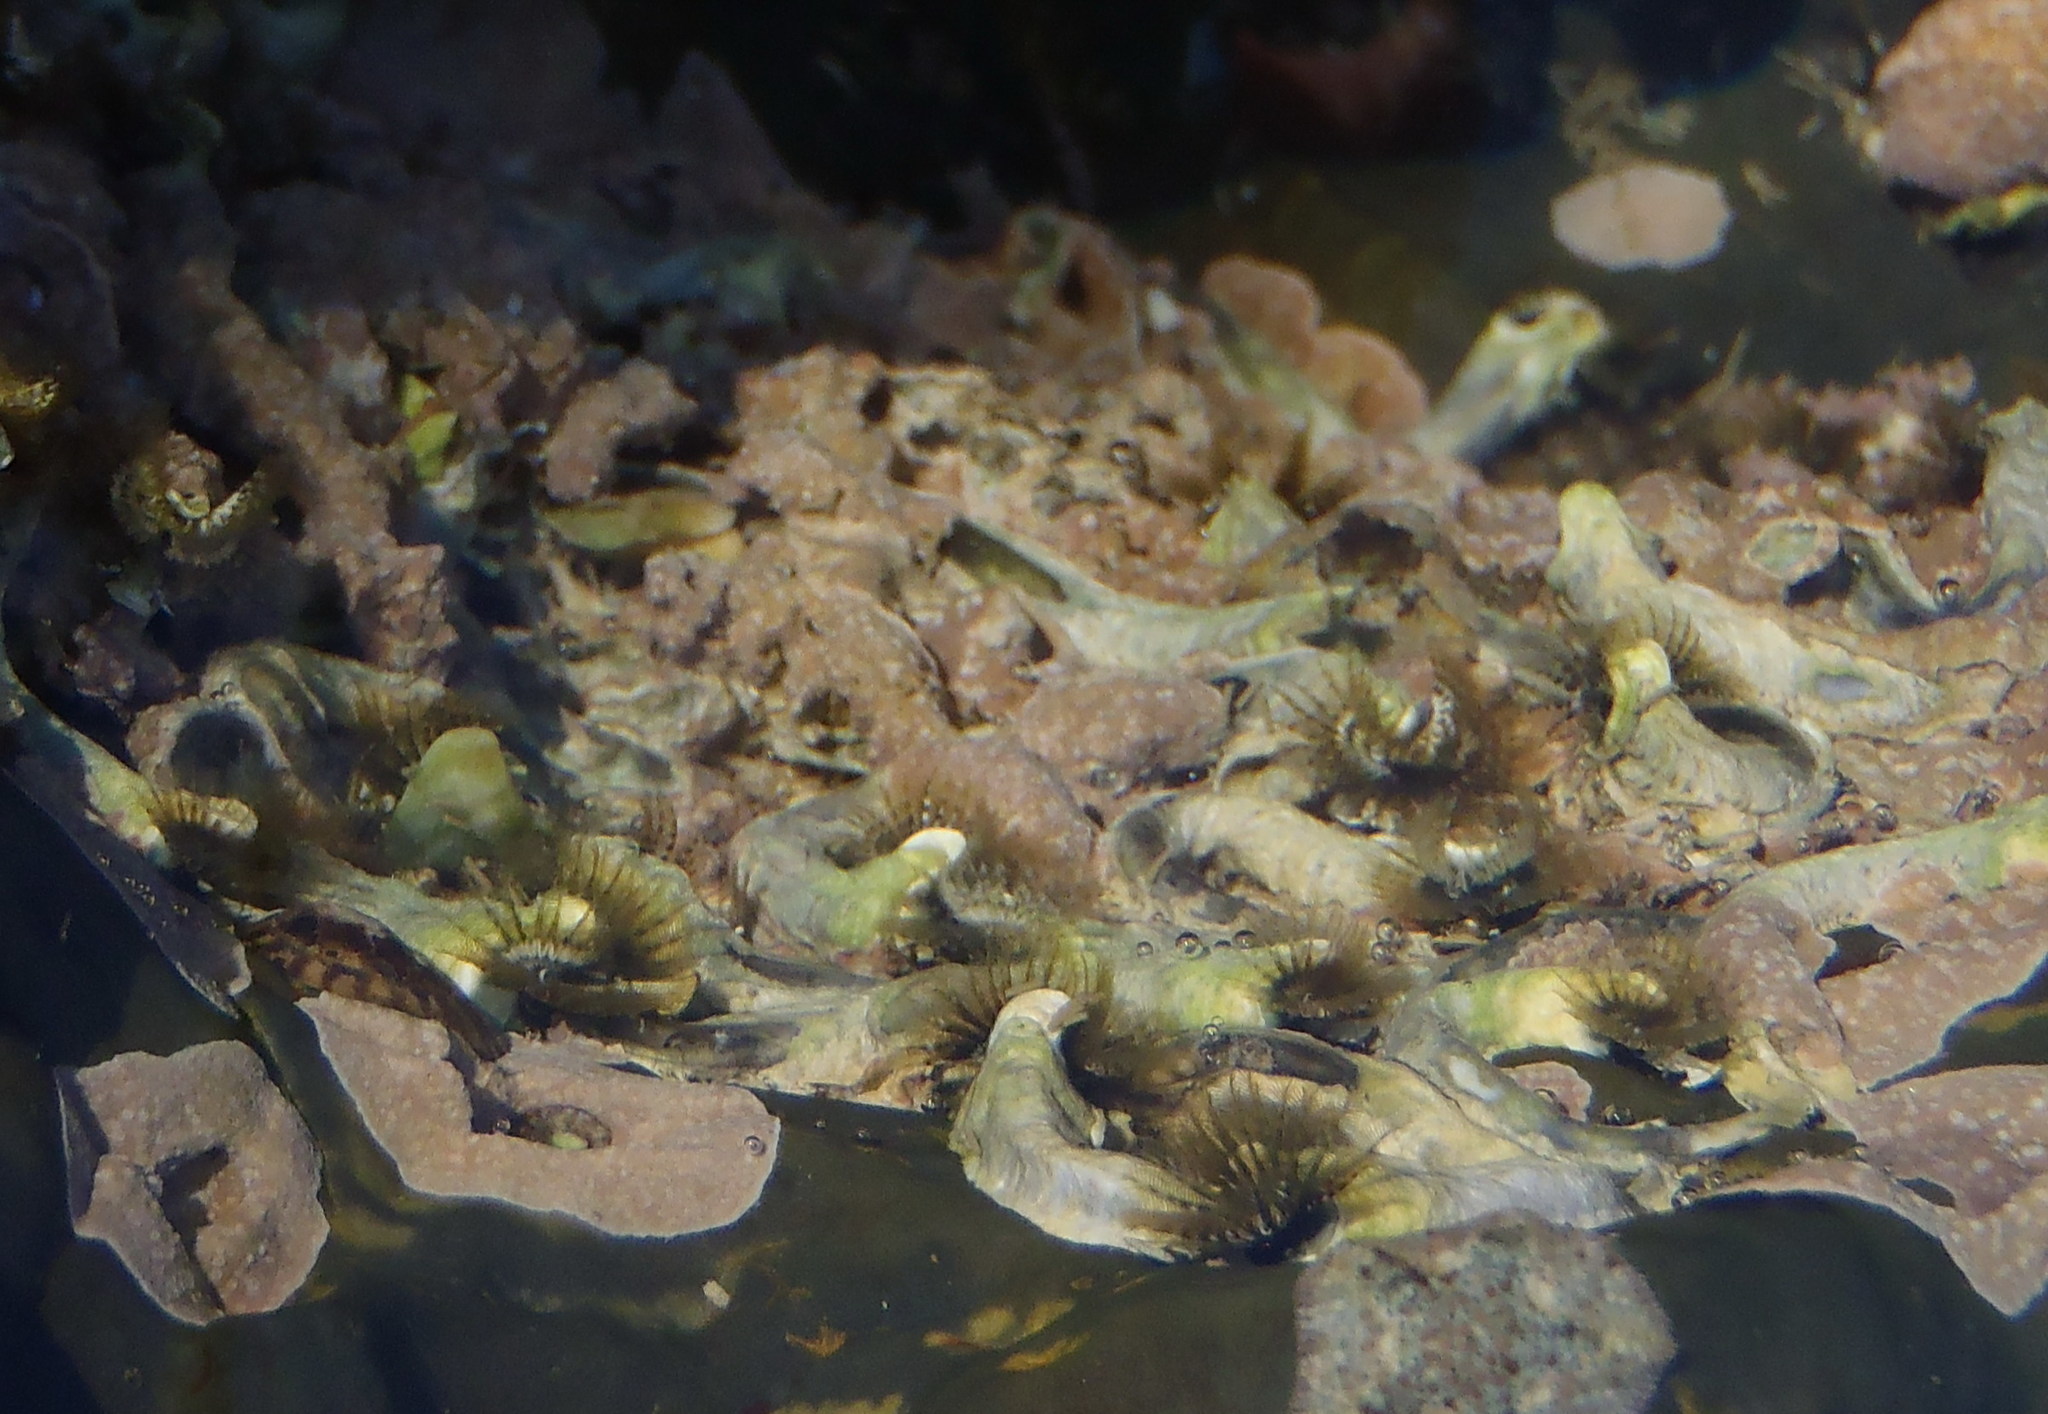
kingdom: Animalia
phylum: Annelida
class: Polychaeta
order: Sabellida
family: Serpulidae
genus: Spirobranchus
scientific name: Spirobranchus kraussii
